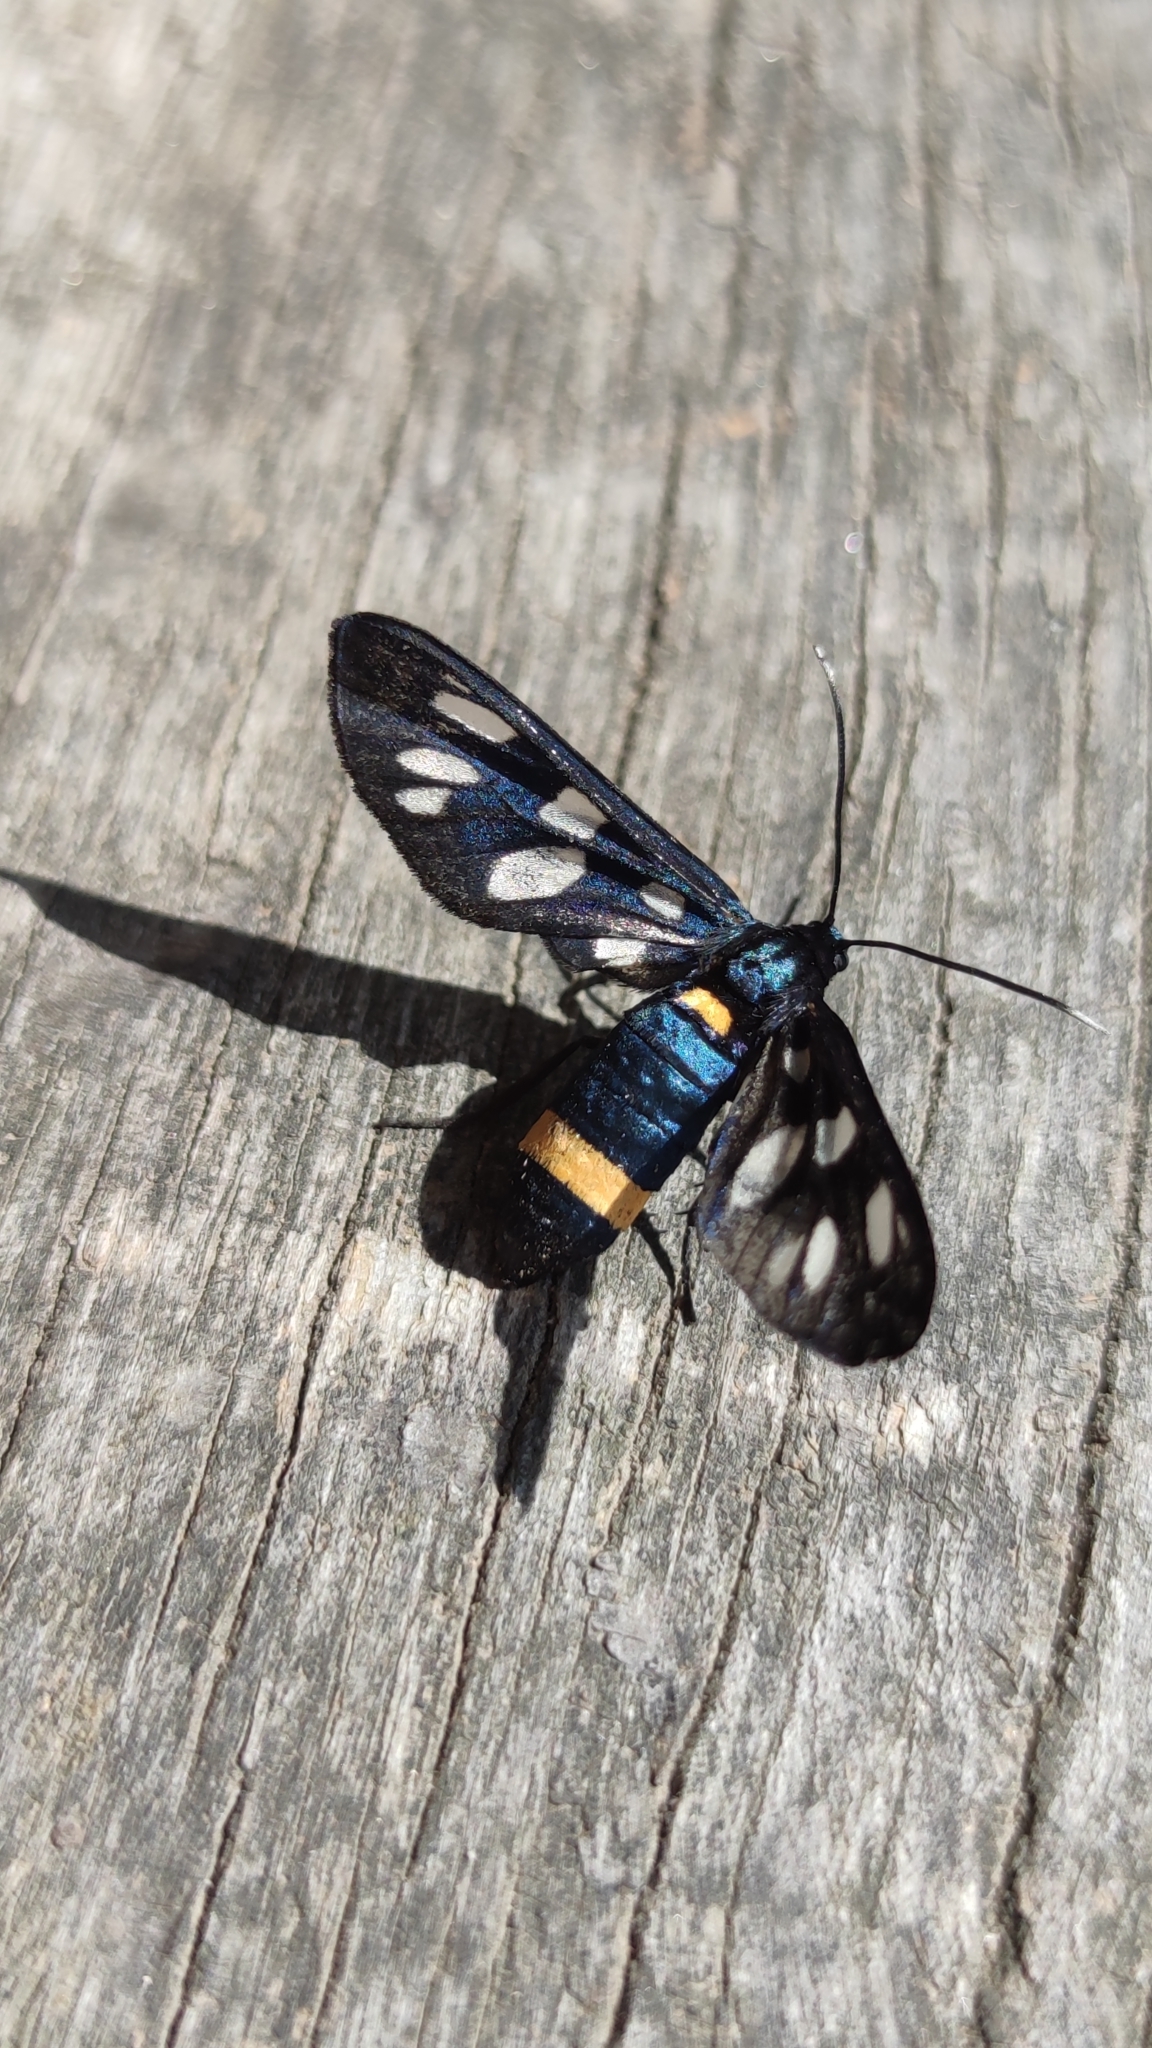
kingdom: Animalia
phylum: Arthropoda
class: Insecta
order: Lepidoptera
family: Erebidae
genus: Amata
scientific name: Amata phegea
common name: Nine-spotted
